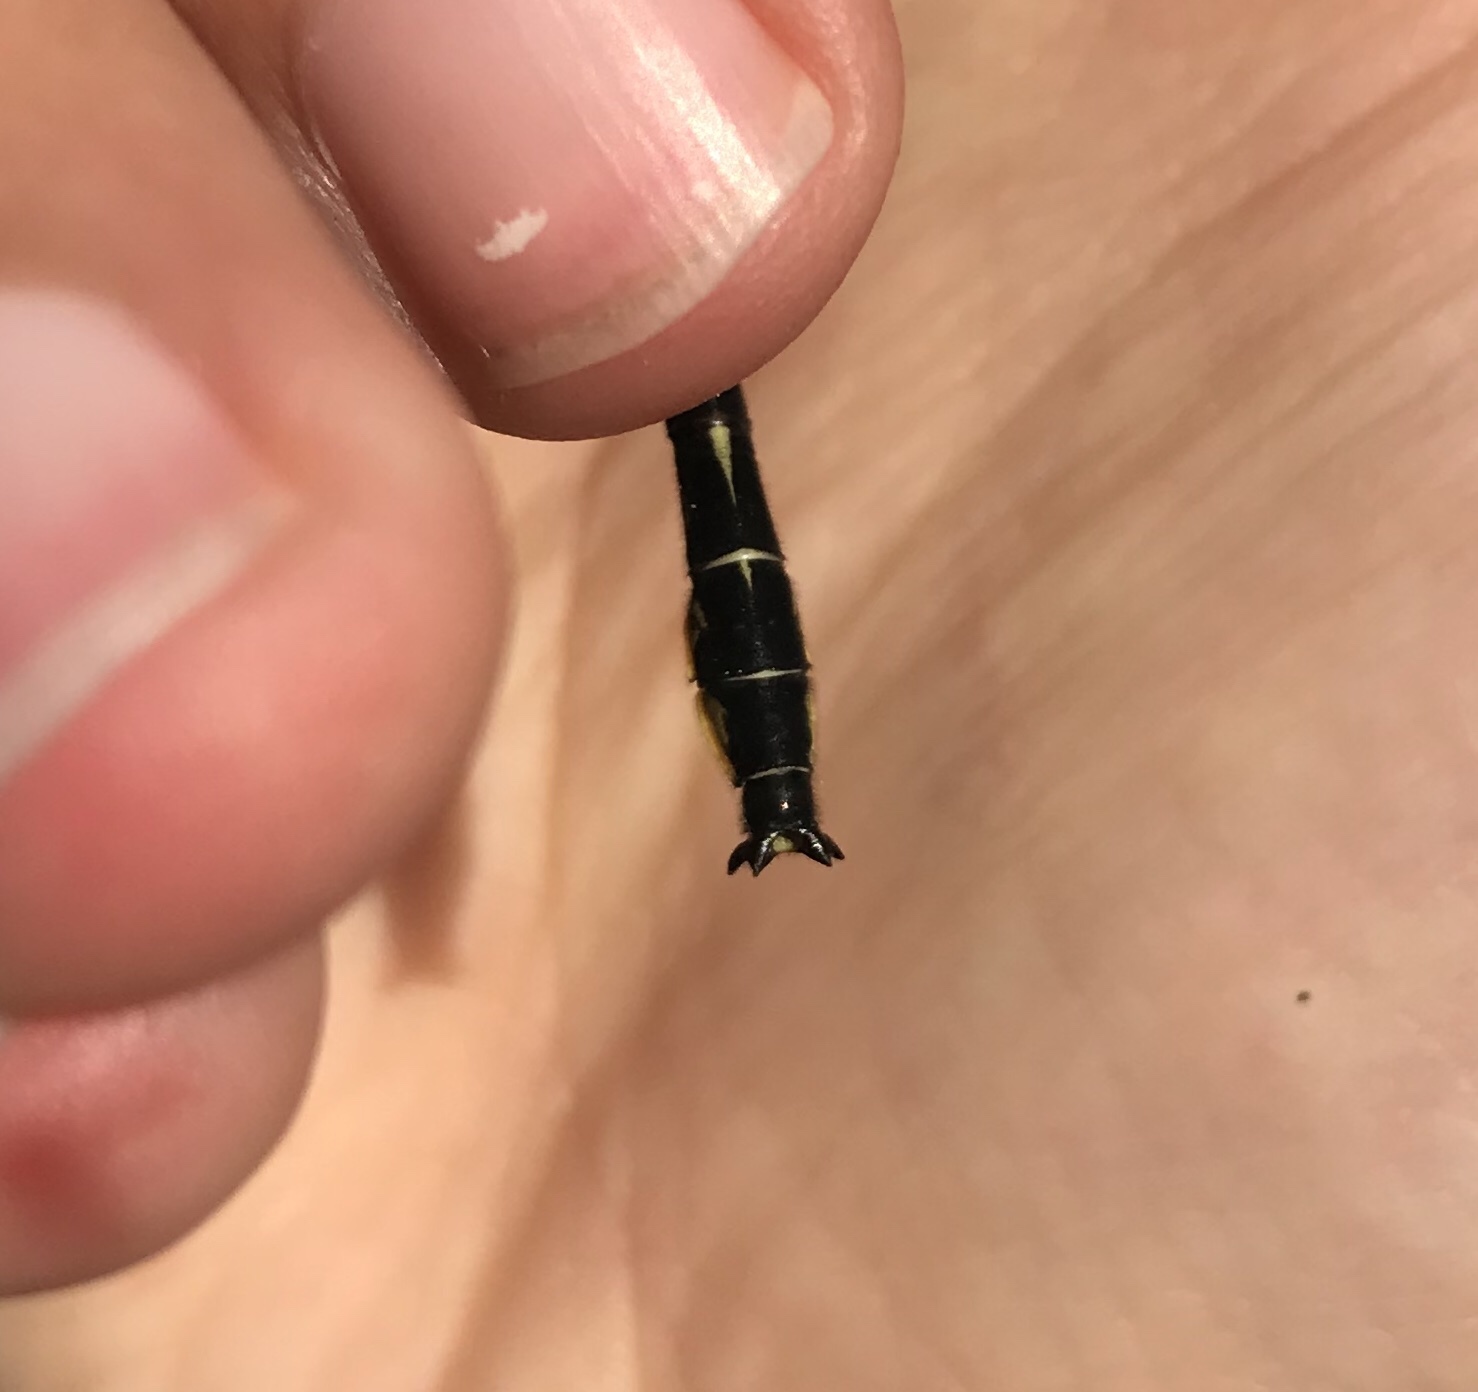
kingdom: Animalia
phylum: Arthropoda
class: Insecta
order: Odonata
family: Gomphidae
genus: Phanogomphus
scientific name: Phanogomphus borealis
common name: Beaverpond clubtail
